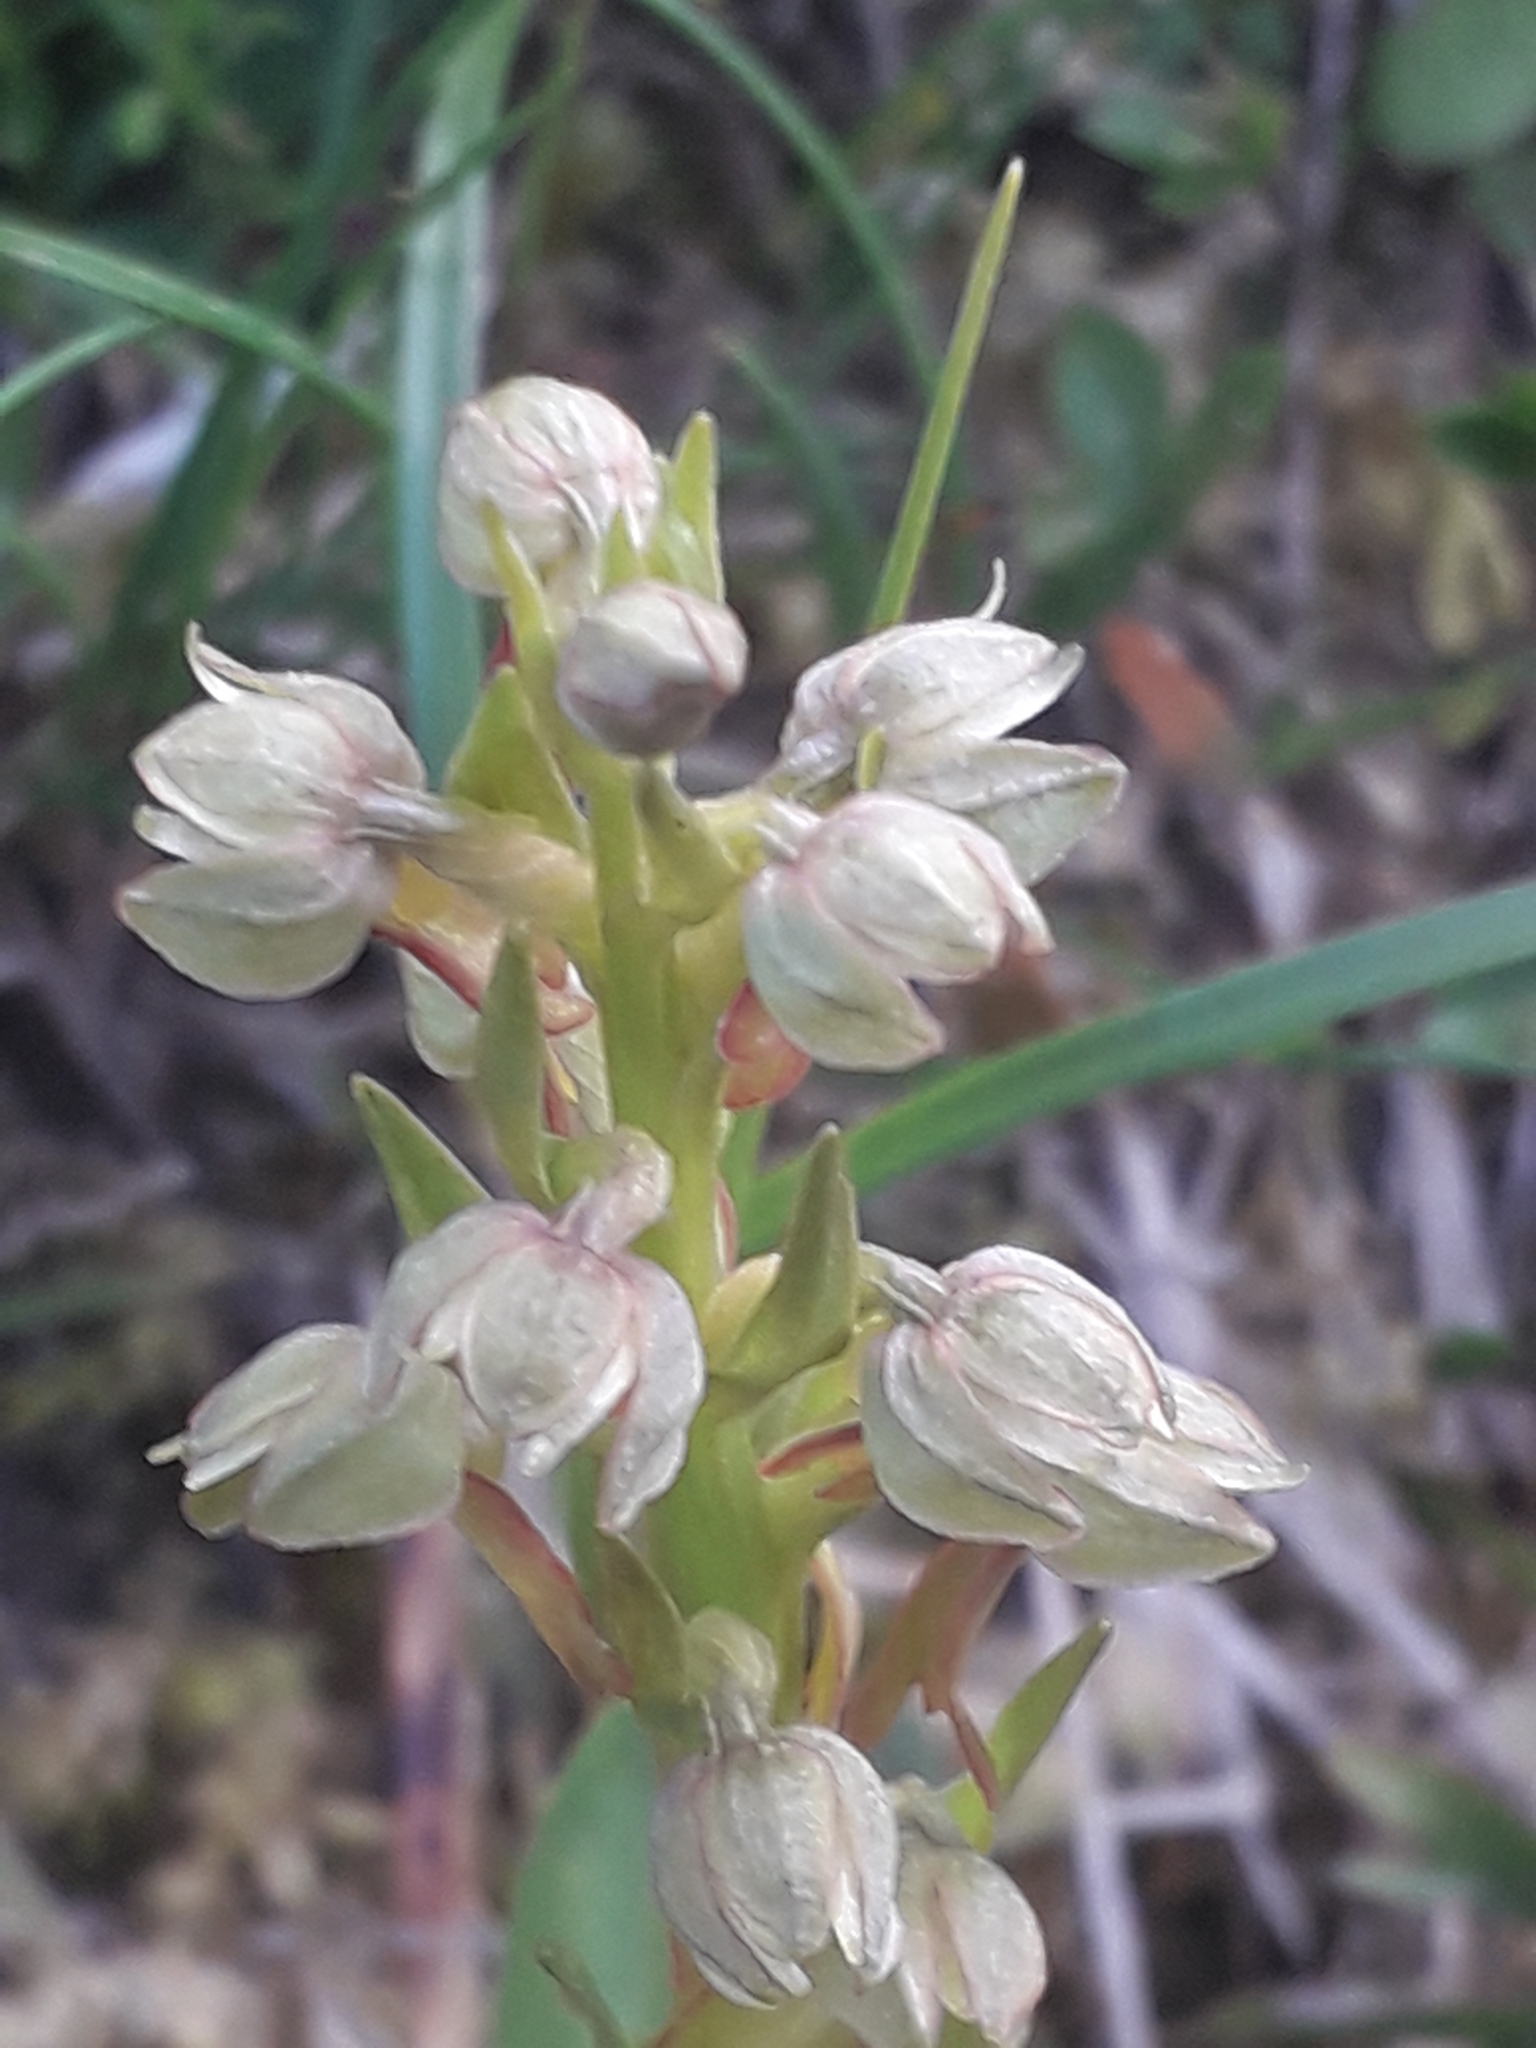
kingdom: Plantae
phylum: Tracheophyta
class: Liliopsida
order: Asparagales
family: Orchidaceae
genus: Dactylorhiza
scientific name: Dactylorhiza viridis
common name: Longbract frog orchid
